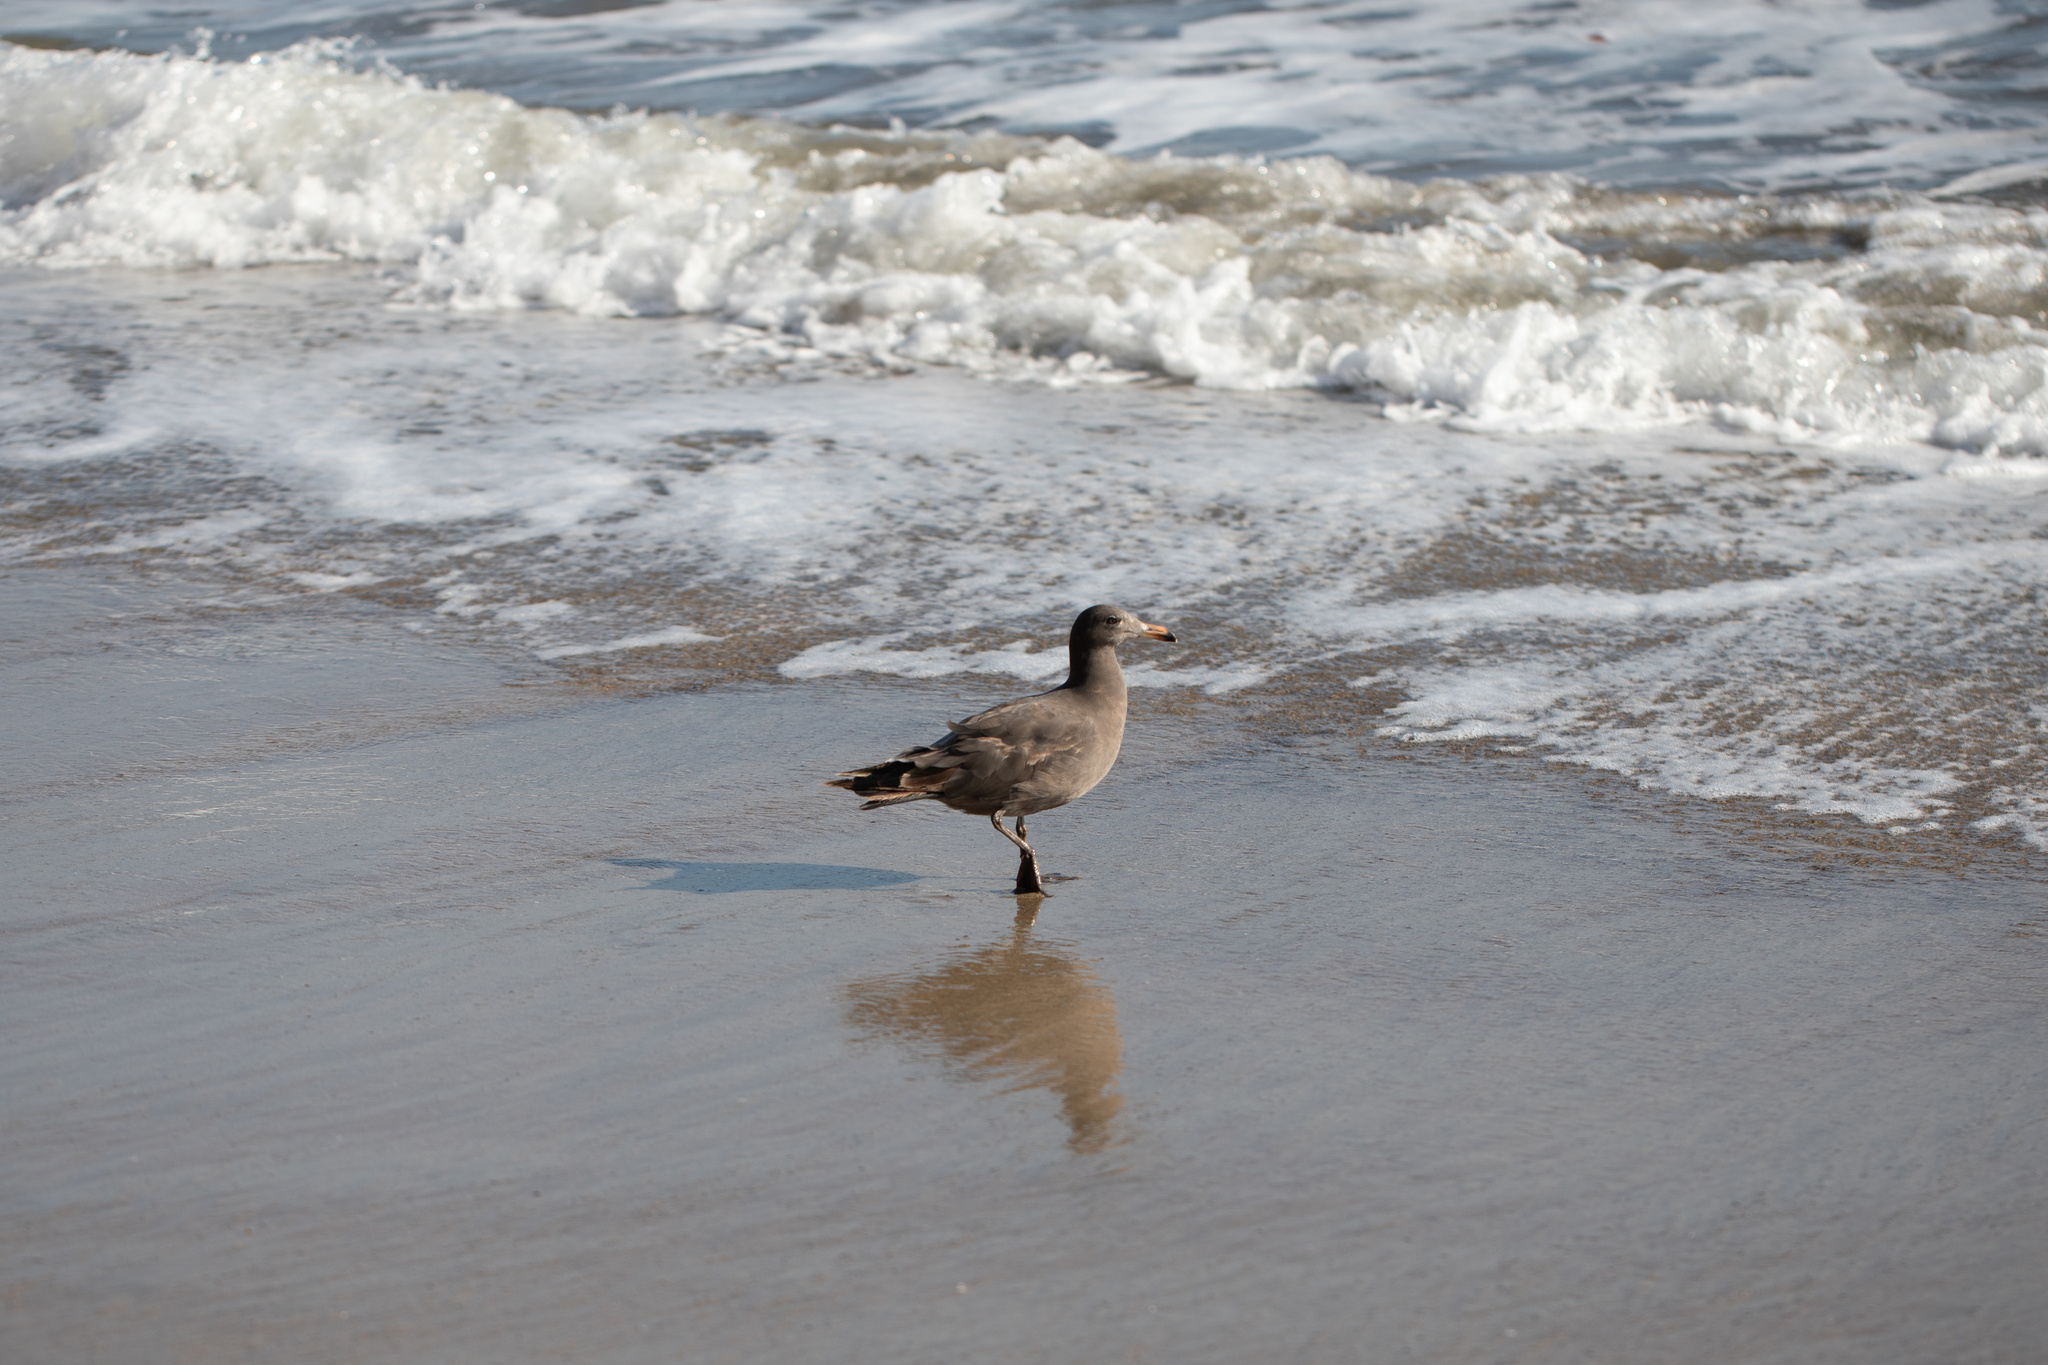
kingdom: Animalia
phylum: Chordata
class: Aves
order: Charadriiformes
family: Laridae
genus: Larus
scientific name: Larus heermanni
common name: Heermann's gull
